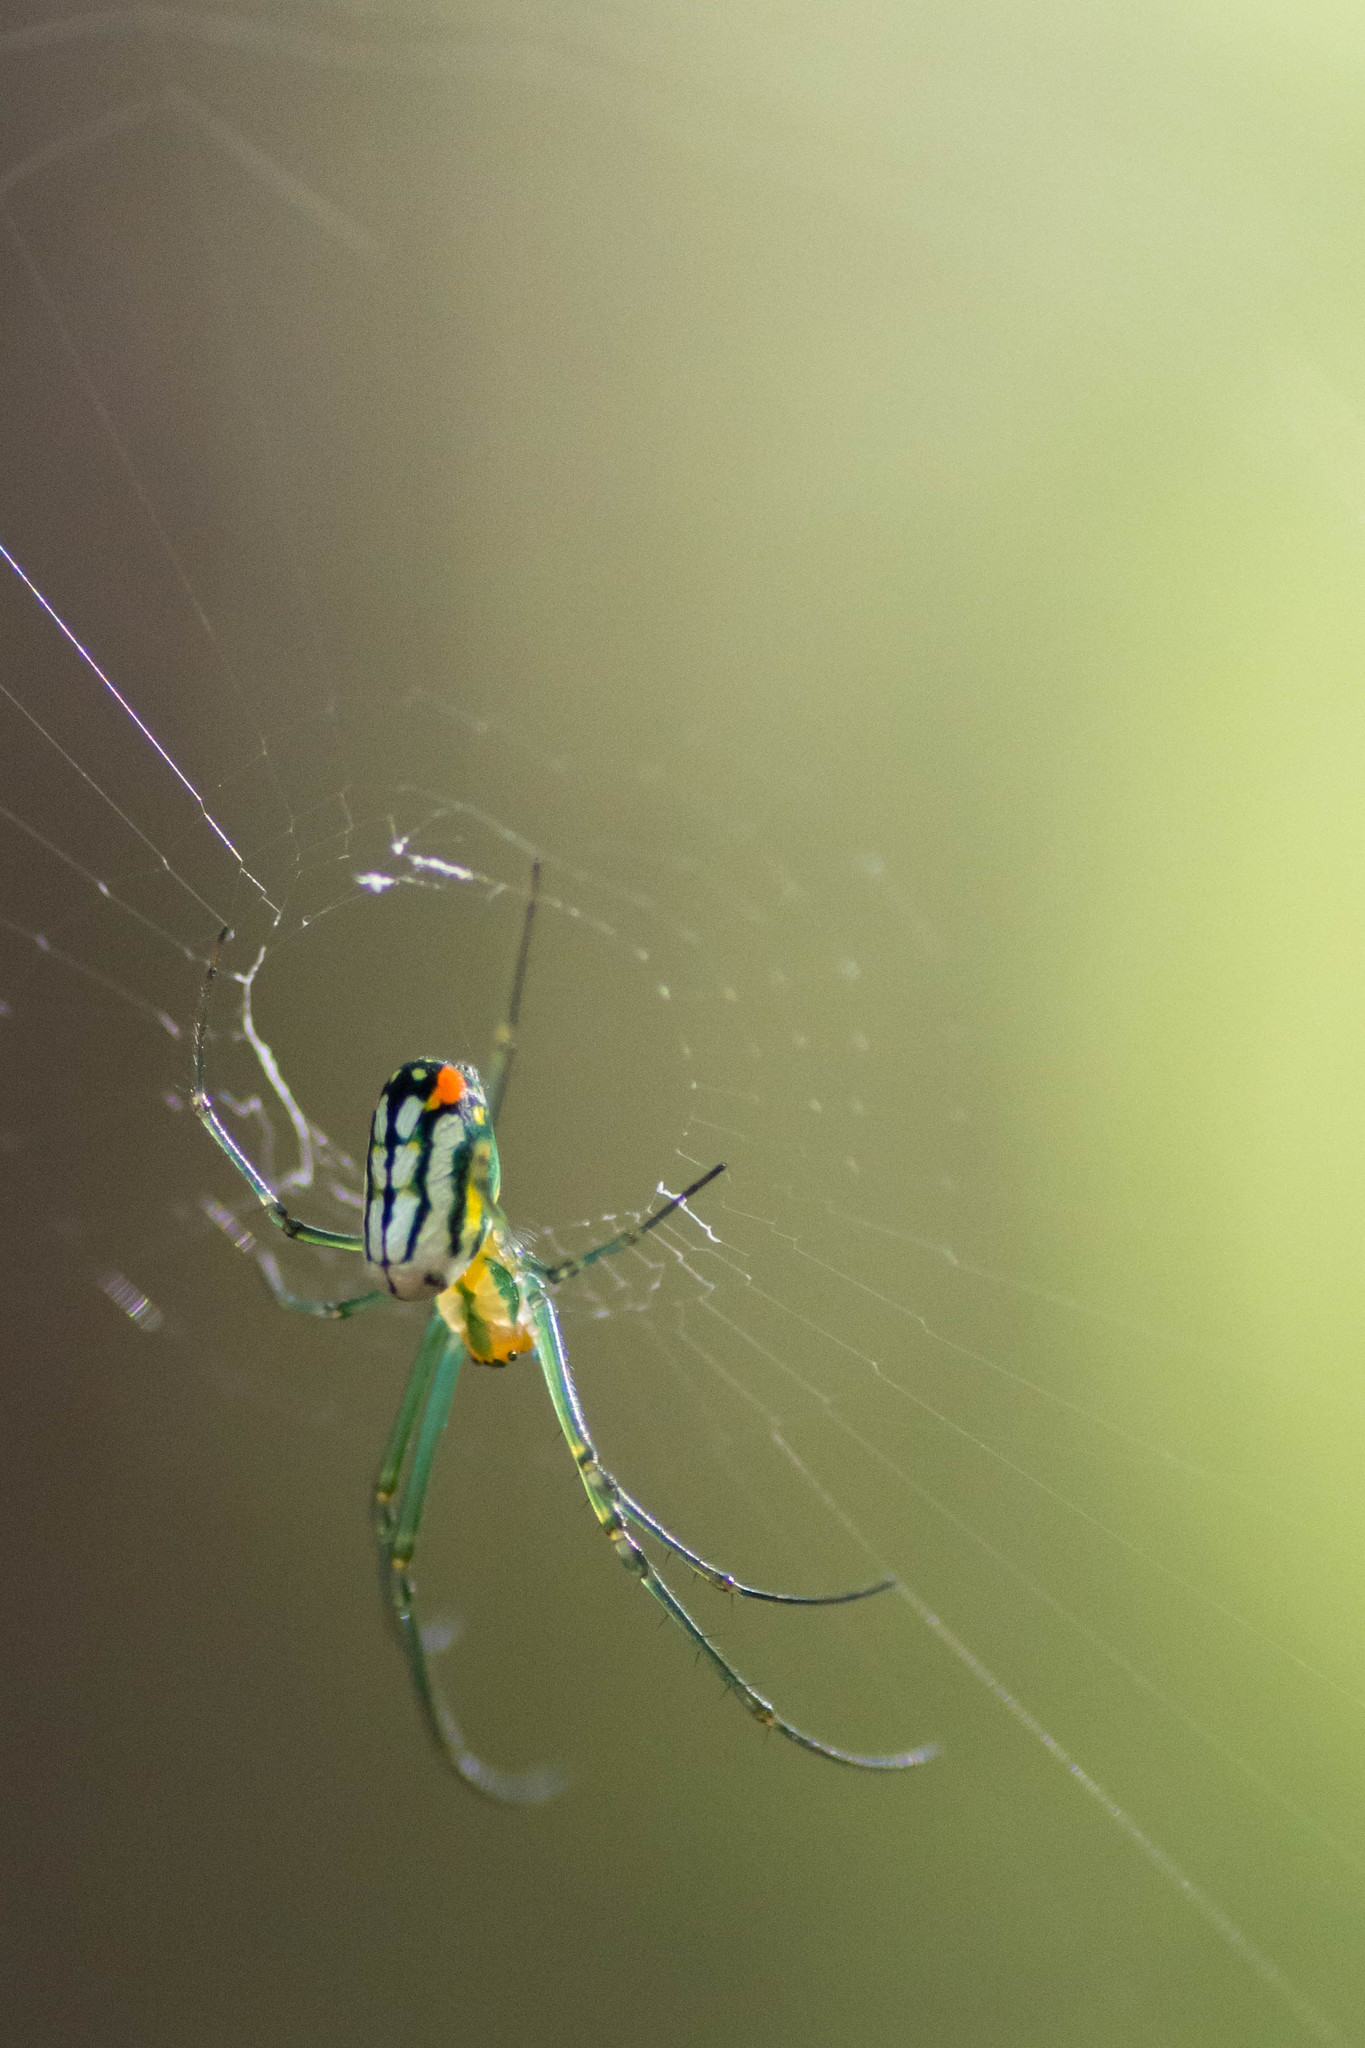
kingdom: Animalia
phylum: Arthropoda
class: Arachnida
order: Araneae
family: Tetragnathidae
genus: Leucauge
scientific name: Leucauge argyrobapta
